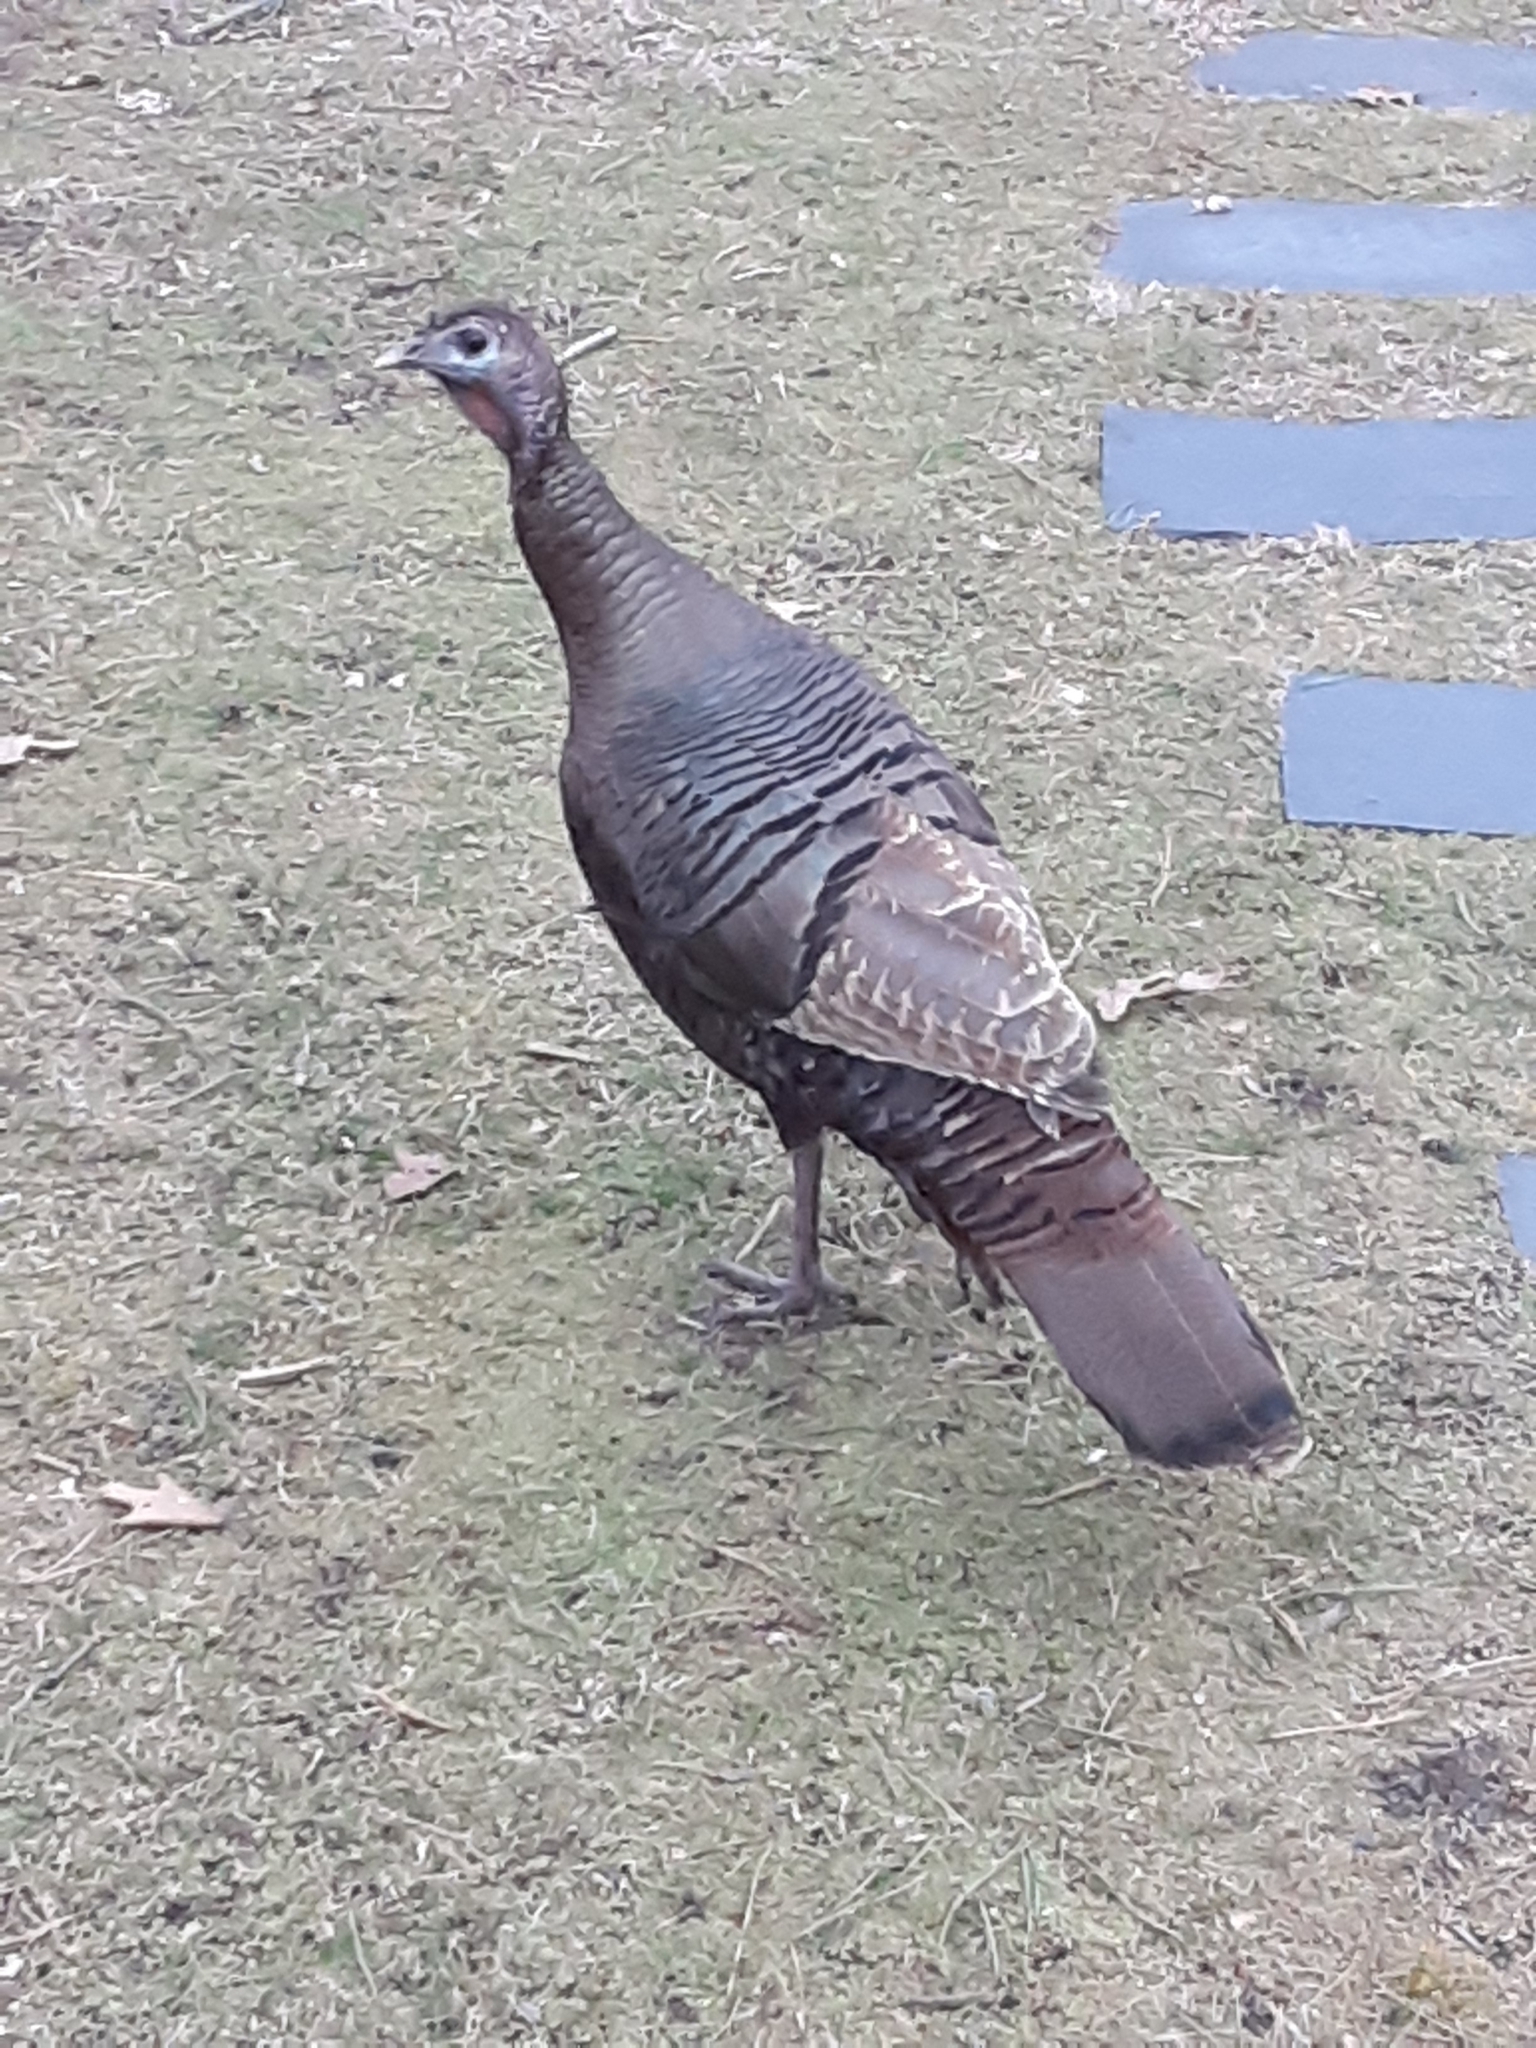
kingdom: Animalia
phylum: Chordata
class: Aves
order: Galliformes
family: Phasianidae
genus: Meleagris
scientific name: Meleagris gallopavo
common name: Wild turkey
